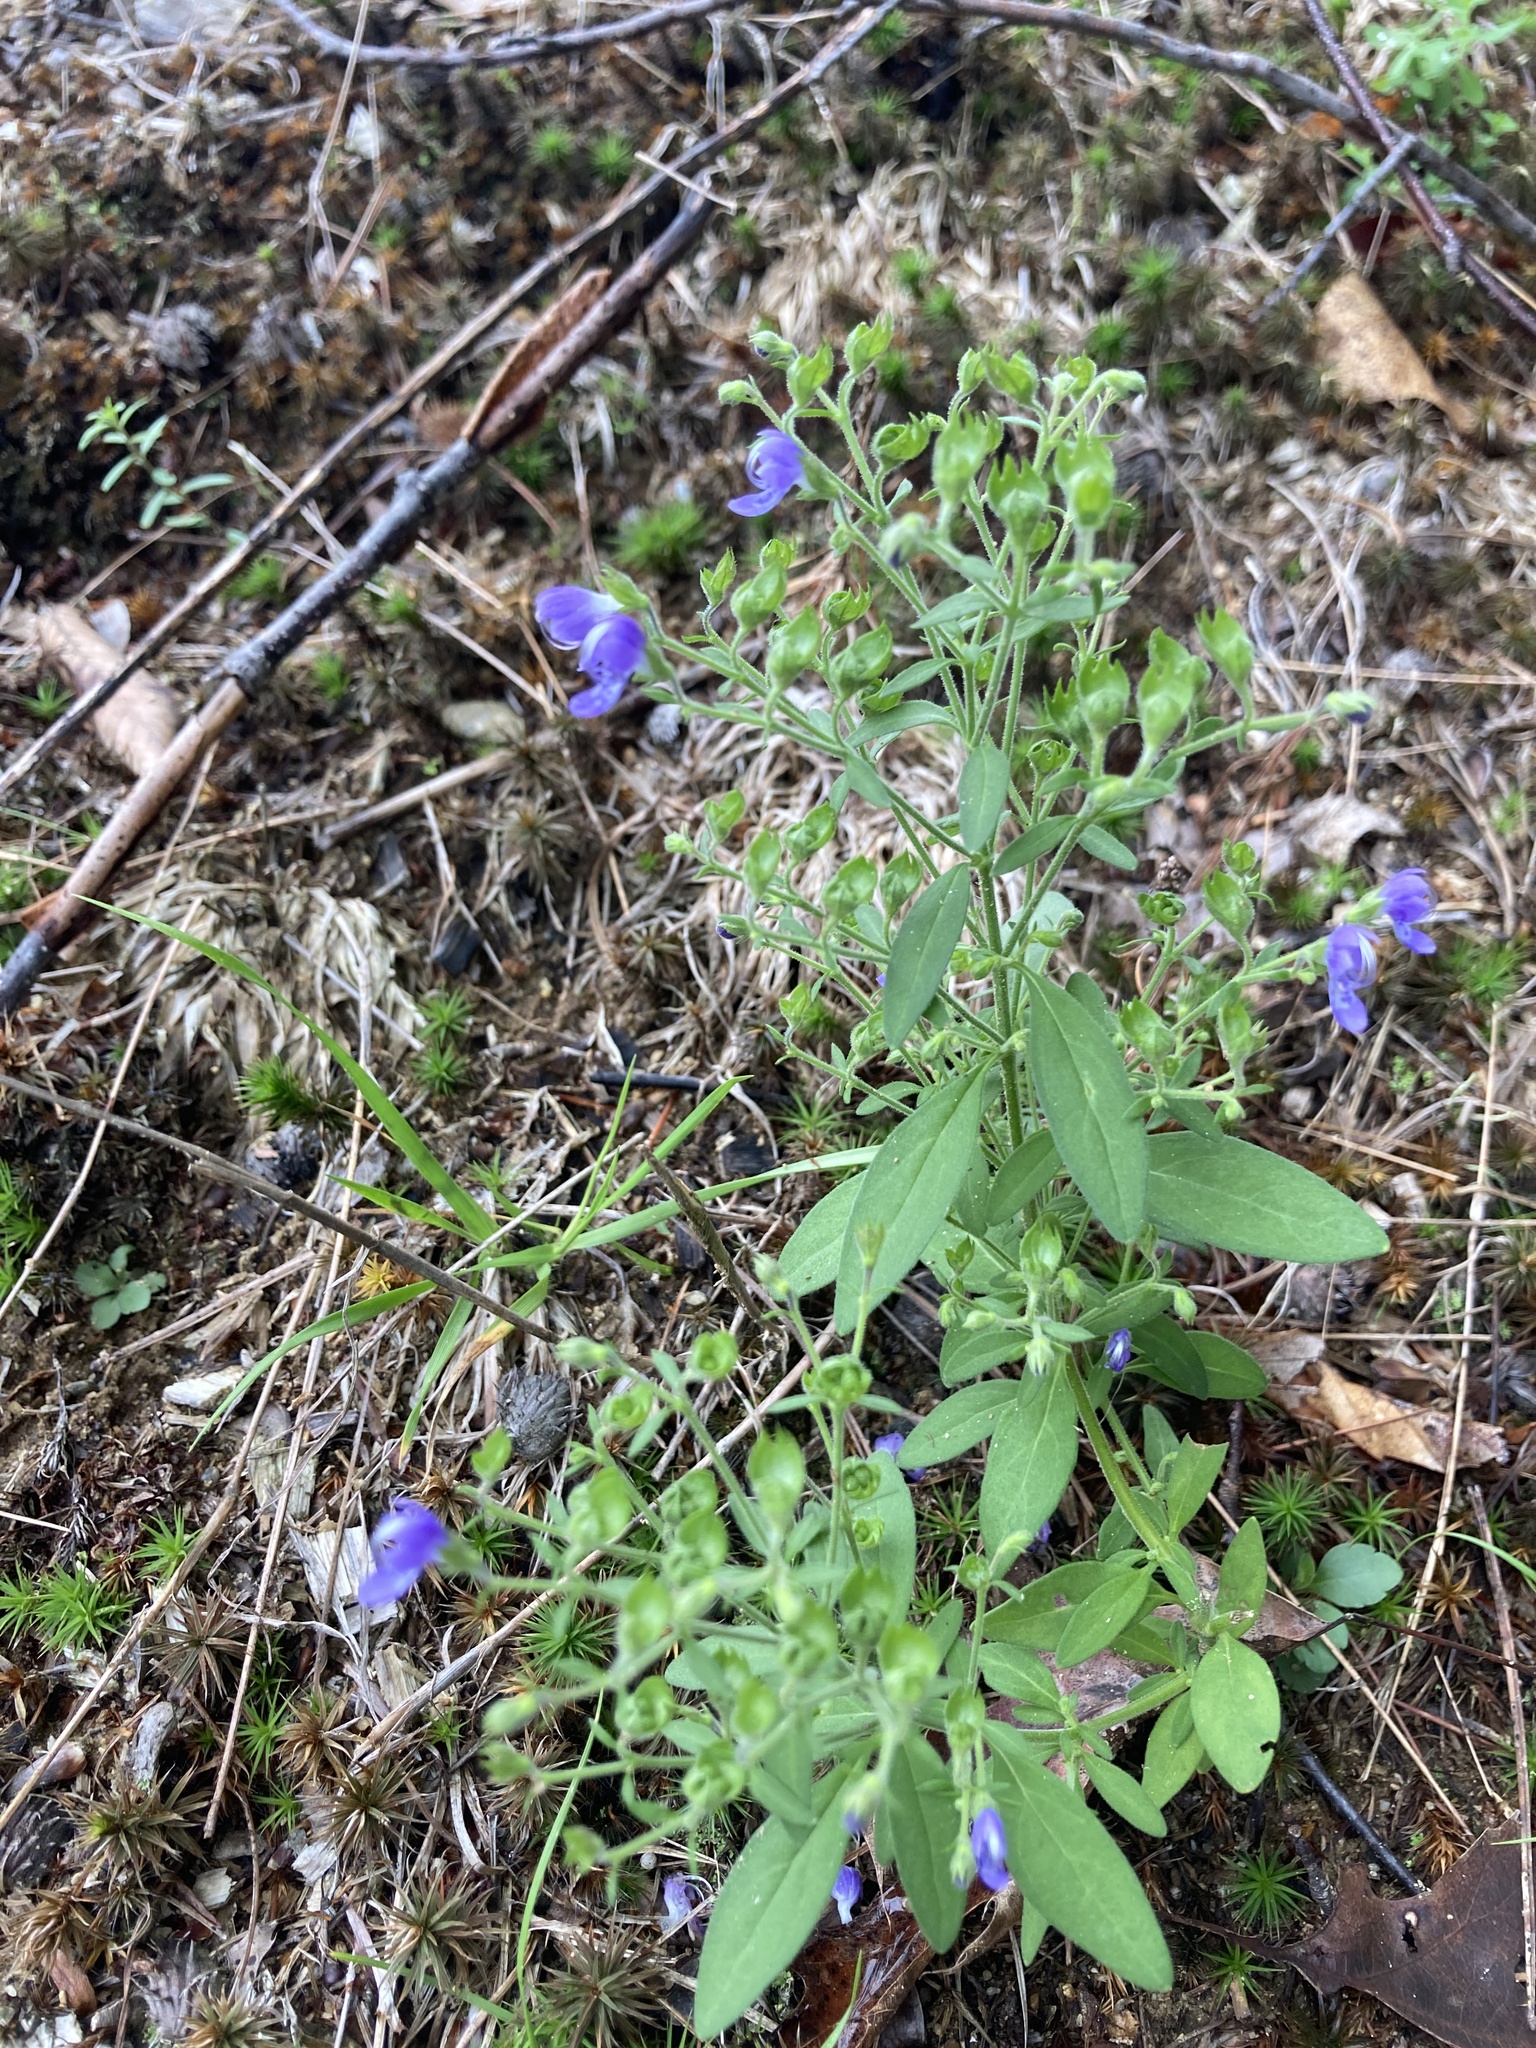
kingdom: Plantae
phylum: Tracheophyta
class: Magnoliopsida
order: Lamiales
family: Lamiaceae
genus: Trichostema
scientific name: Trichostema dichotomum
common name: Bastard pennyroyal
